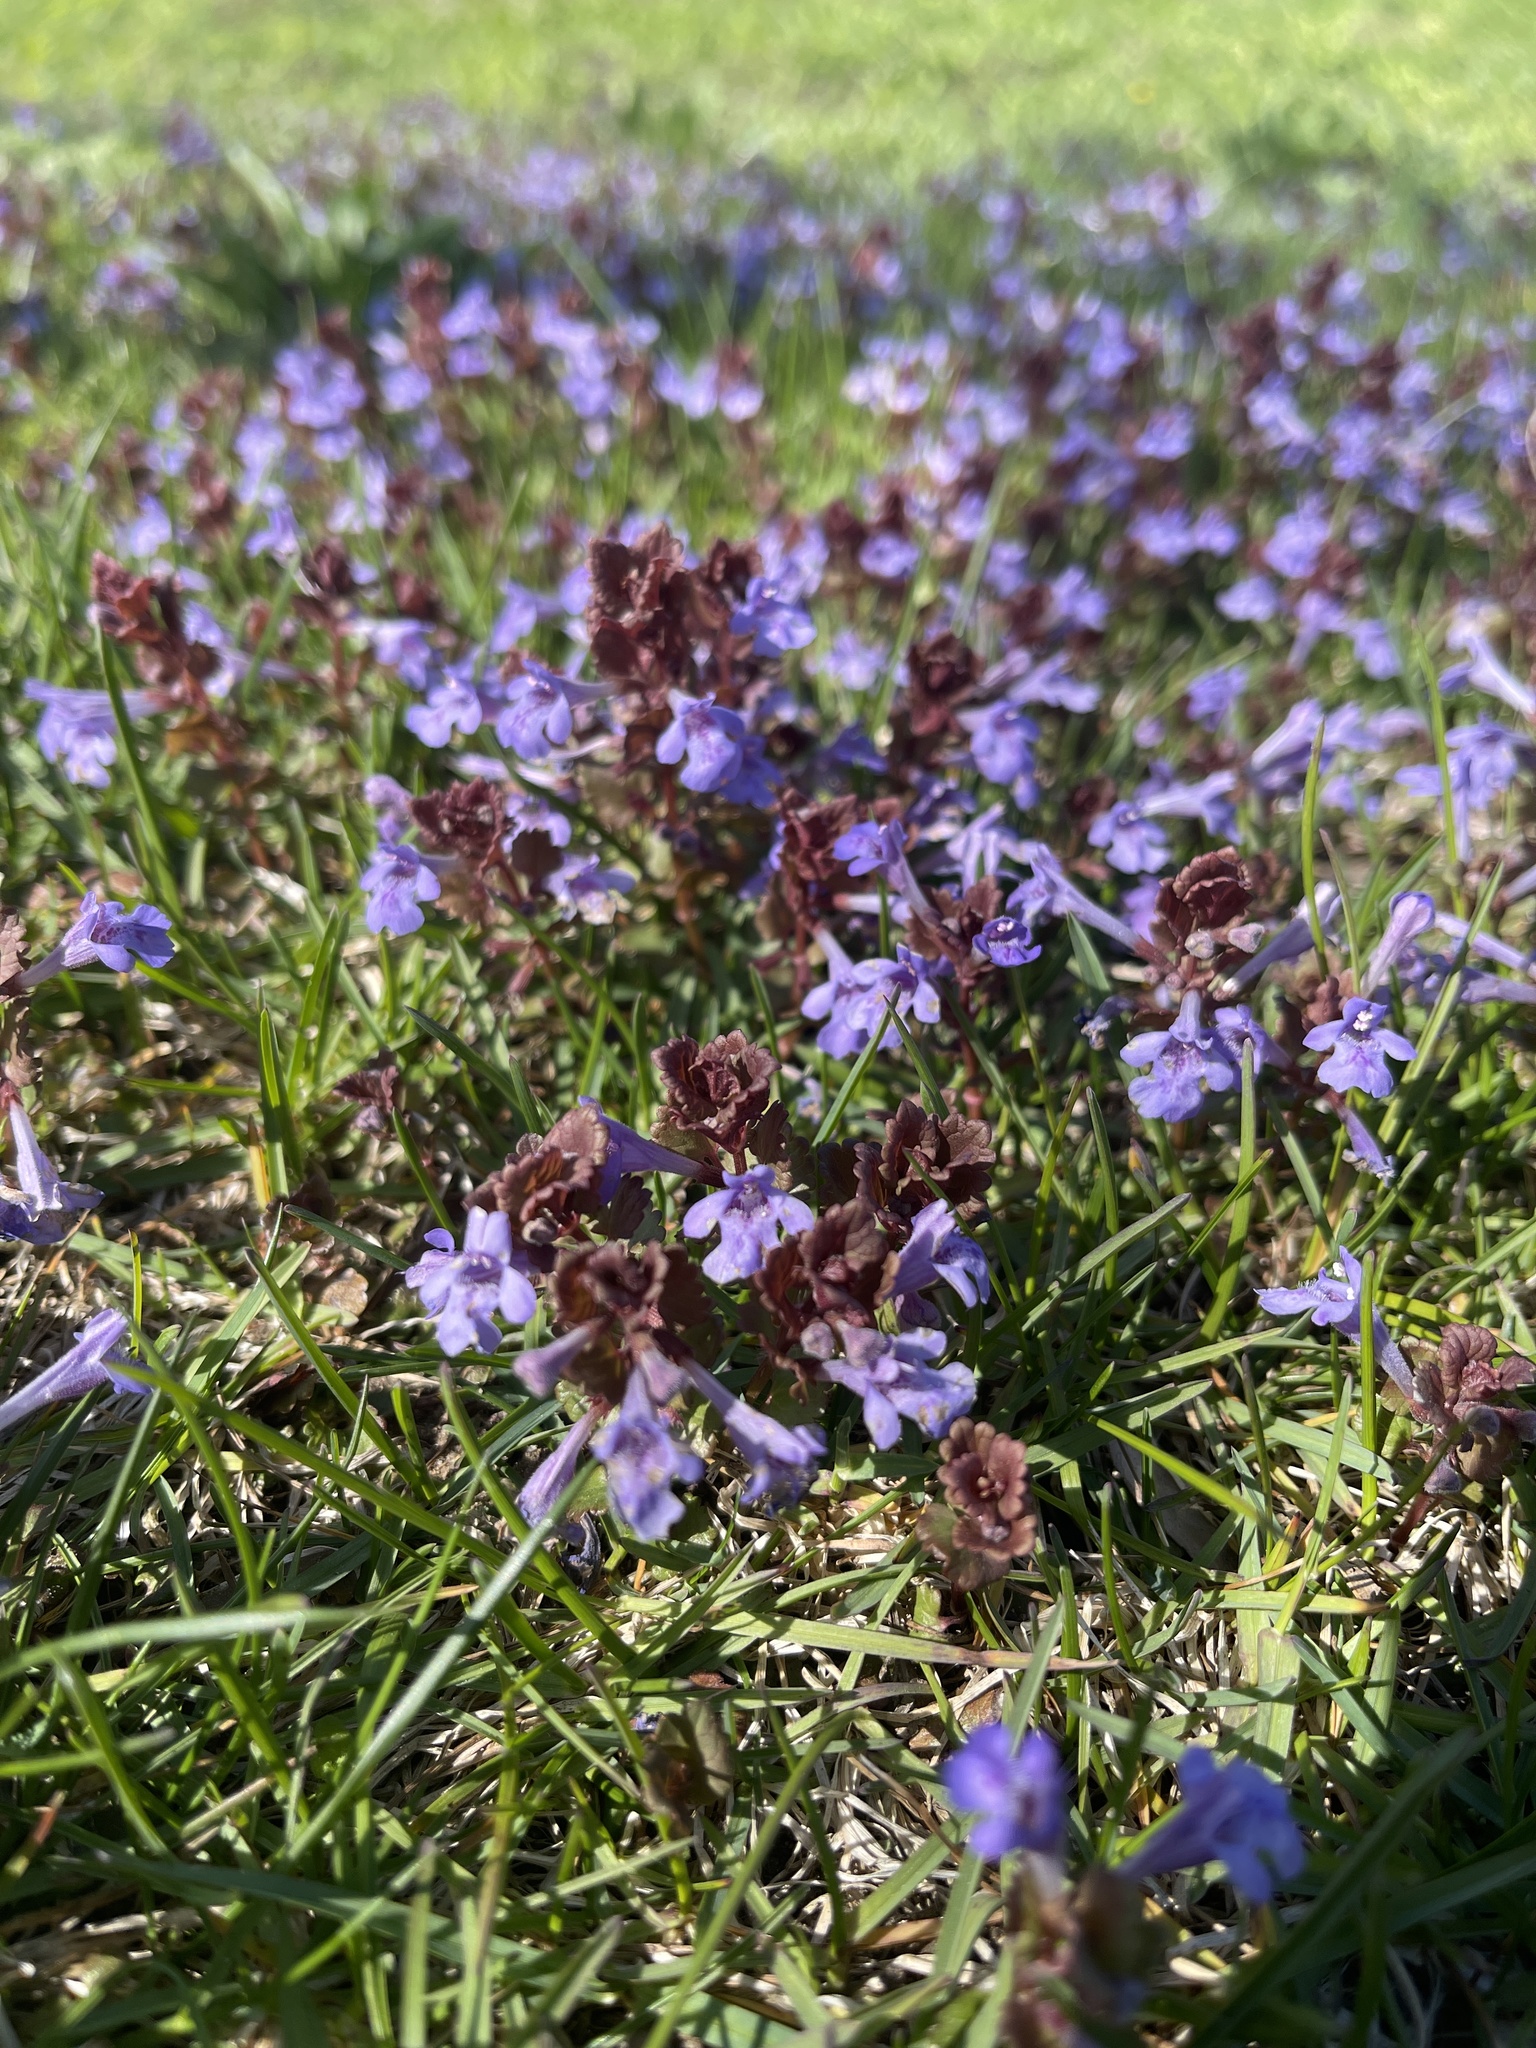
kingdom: Plantae
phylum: Tracheophyta
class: Magnoliopsida
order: Lamiales
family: Lamiaceae
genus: Glechoma
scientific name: Glechoma hederacea
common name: Ground ivy
